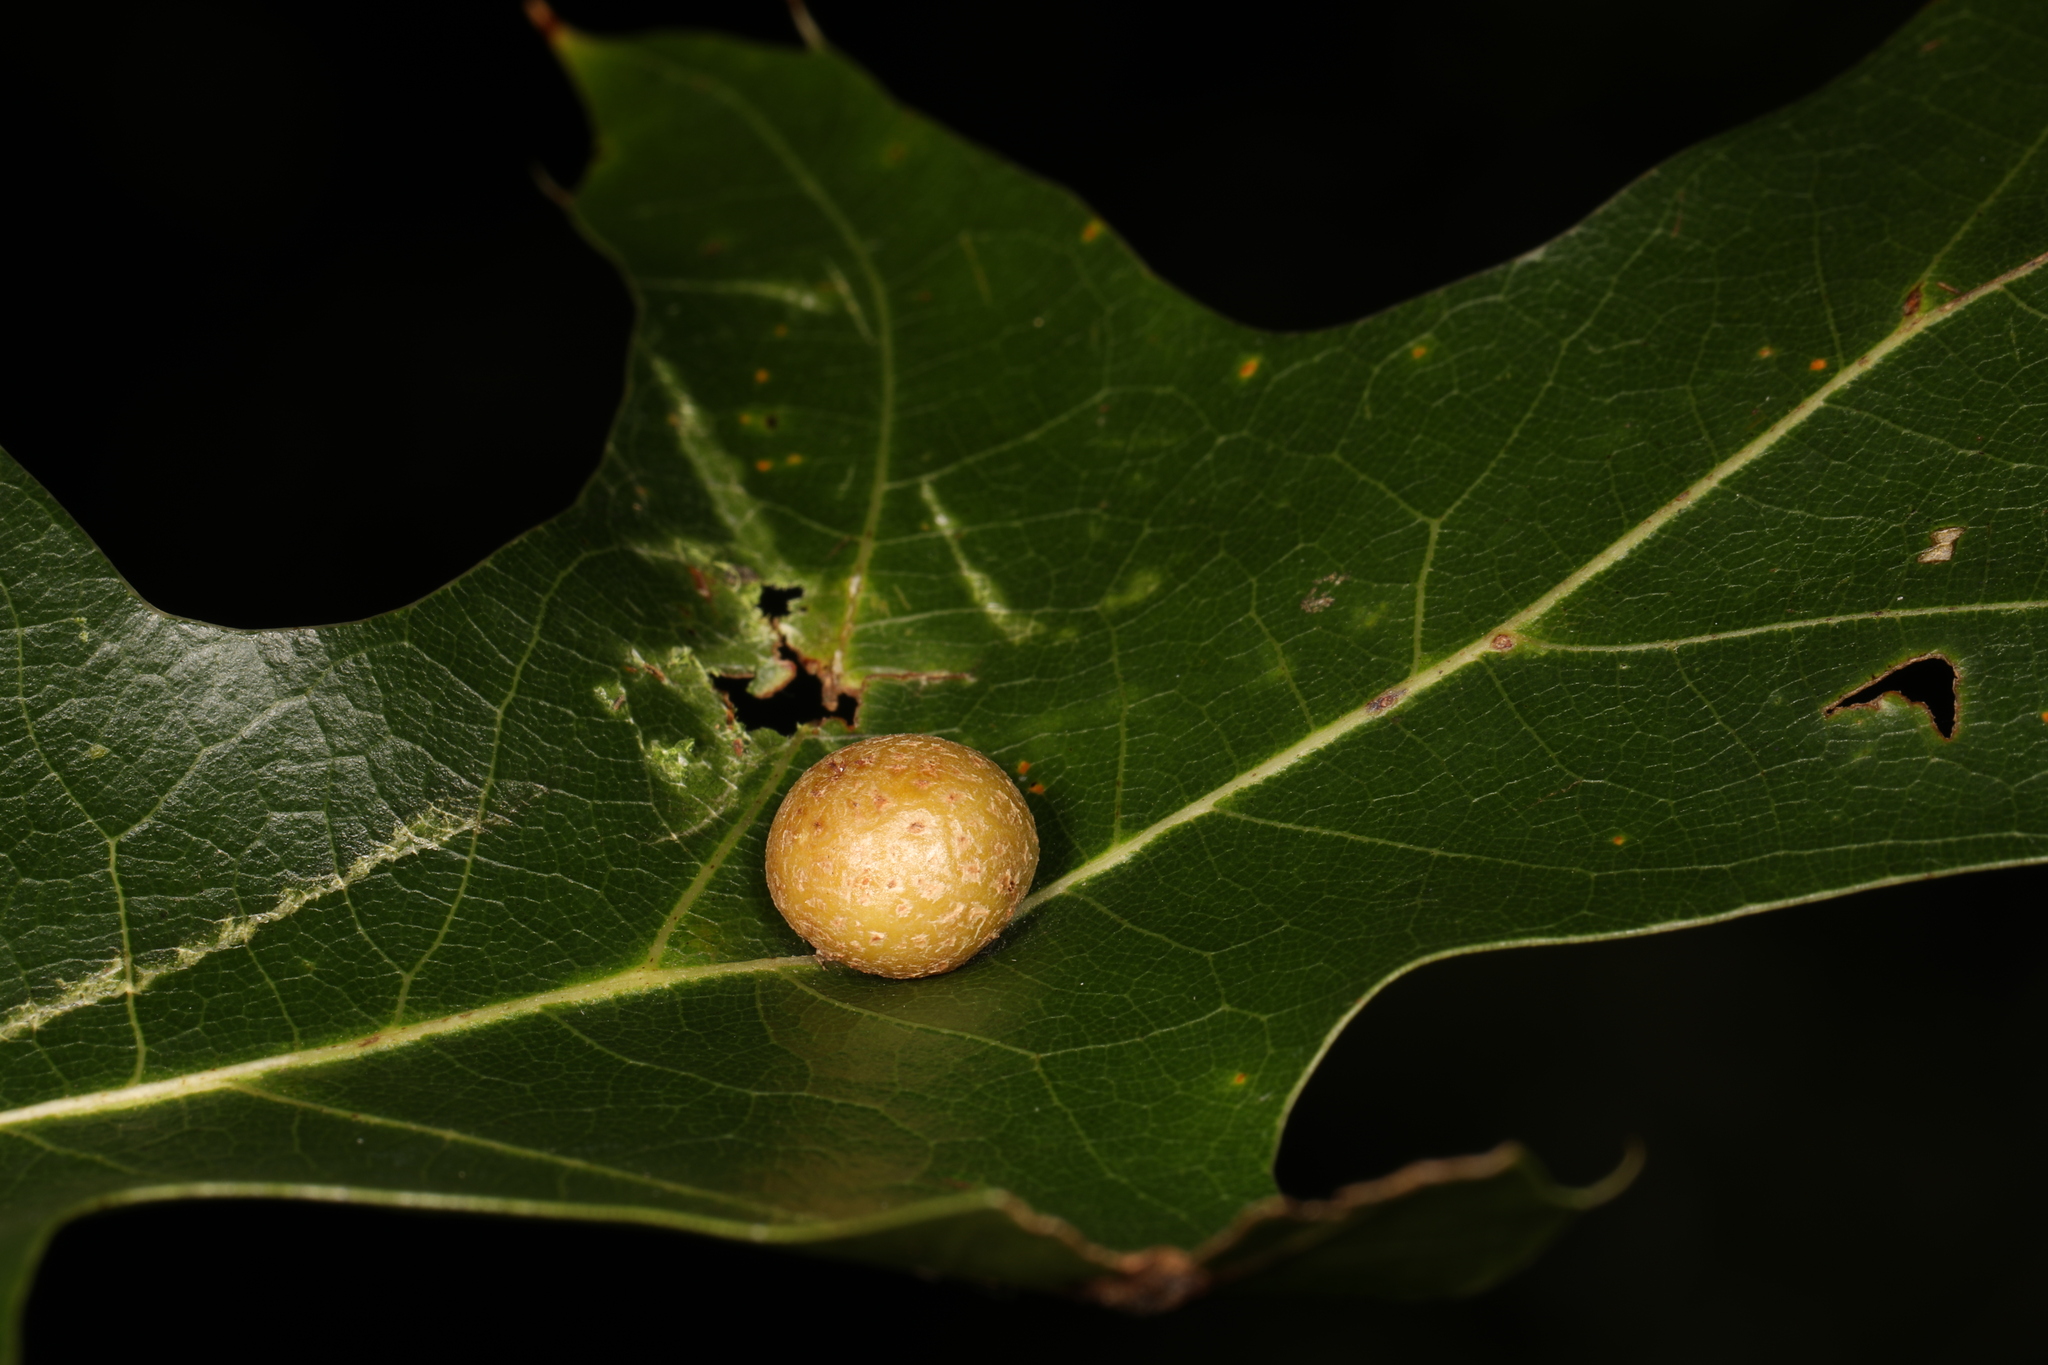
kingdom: Animalia
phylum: Arthropoda
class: Insecta
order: Diptera
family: Cecidomyiidae
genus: Polystepha
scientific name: Polystepha pilulae
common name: Oak leaf gall midge
